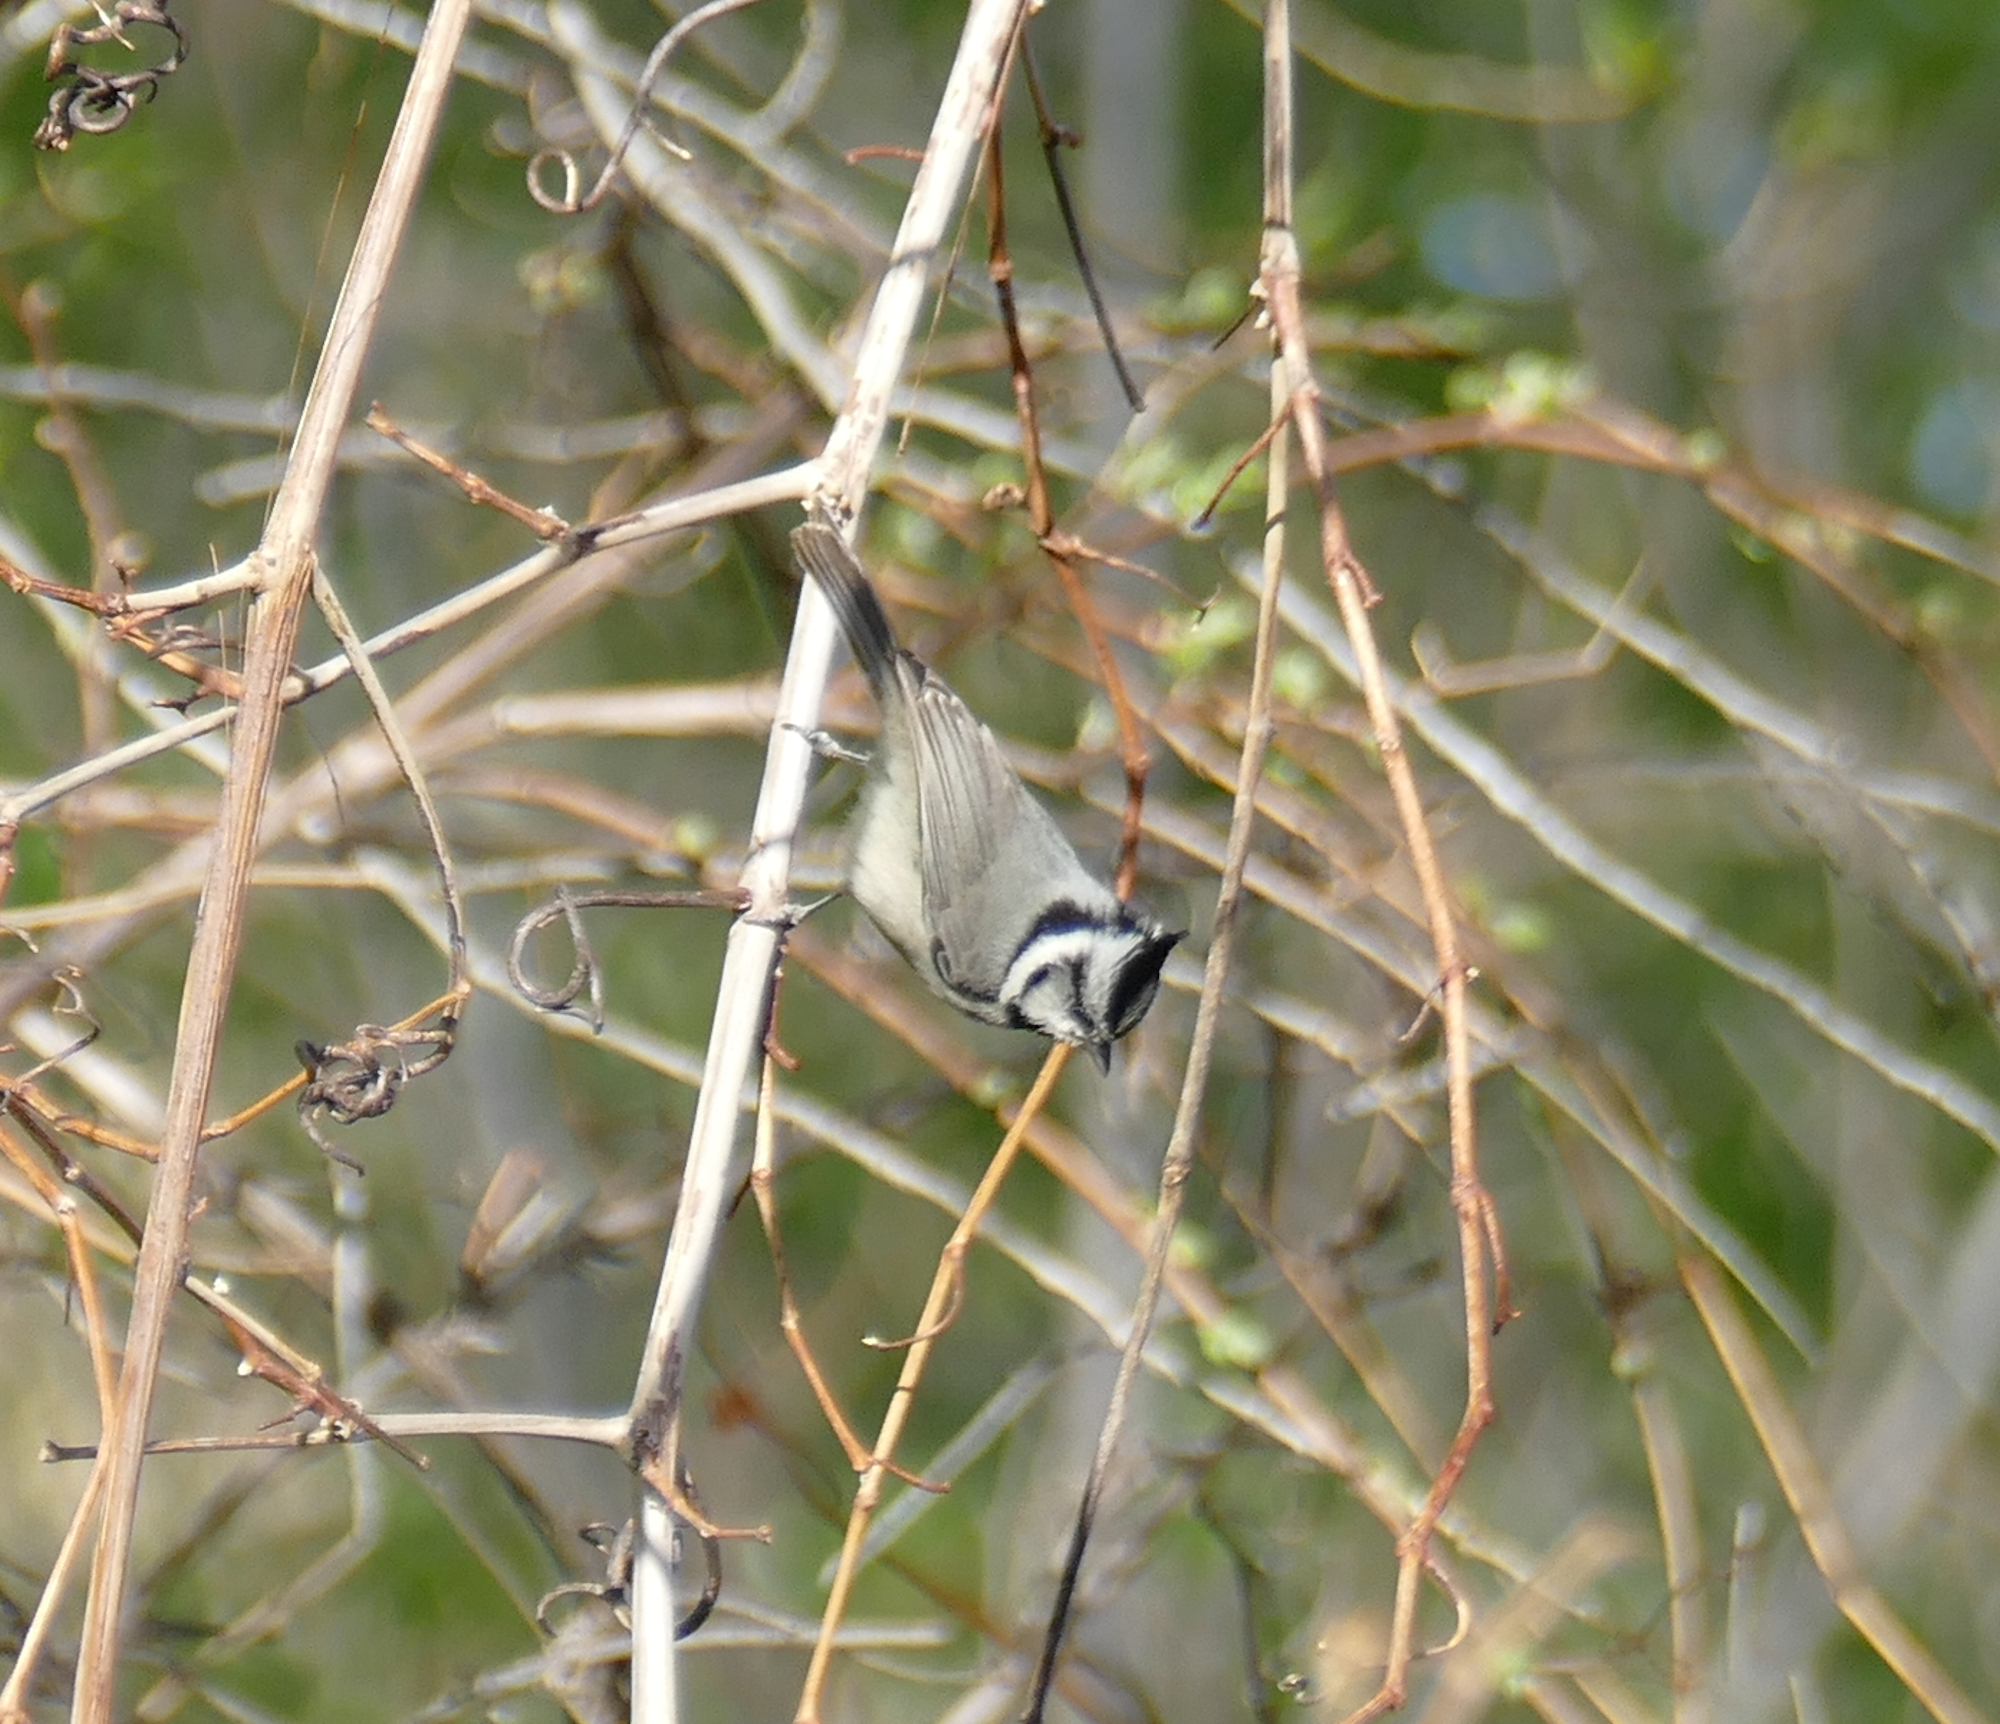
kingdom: Animalia
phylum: Chordata
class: Aves
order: Passeriformes
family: Paridae
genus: Baeolophus
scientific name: Baeolophus wollweberi
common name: Bridled titmouse
